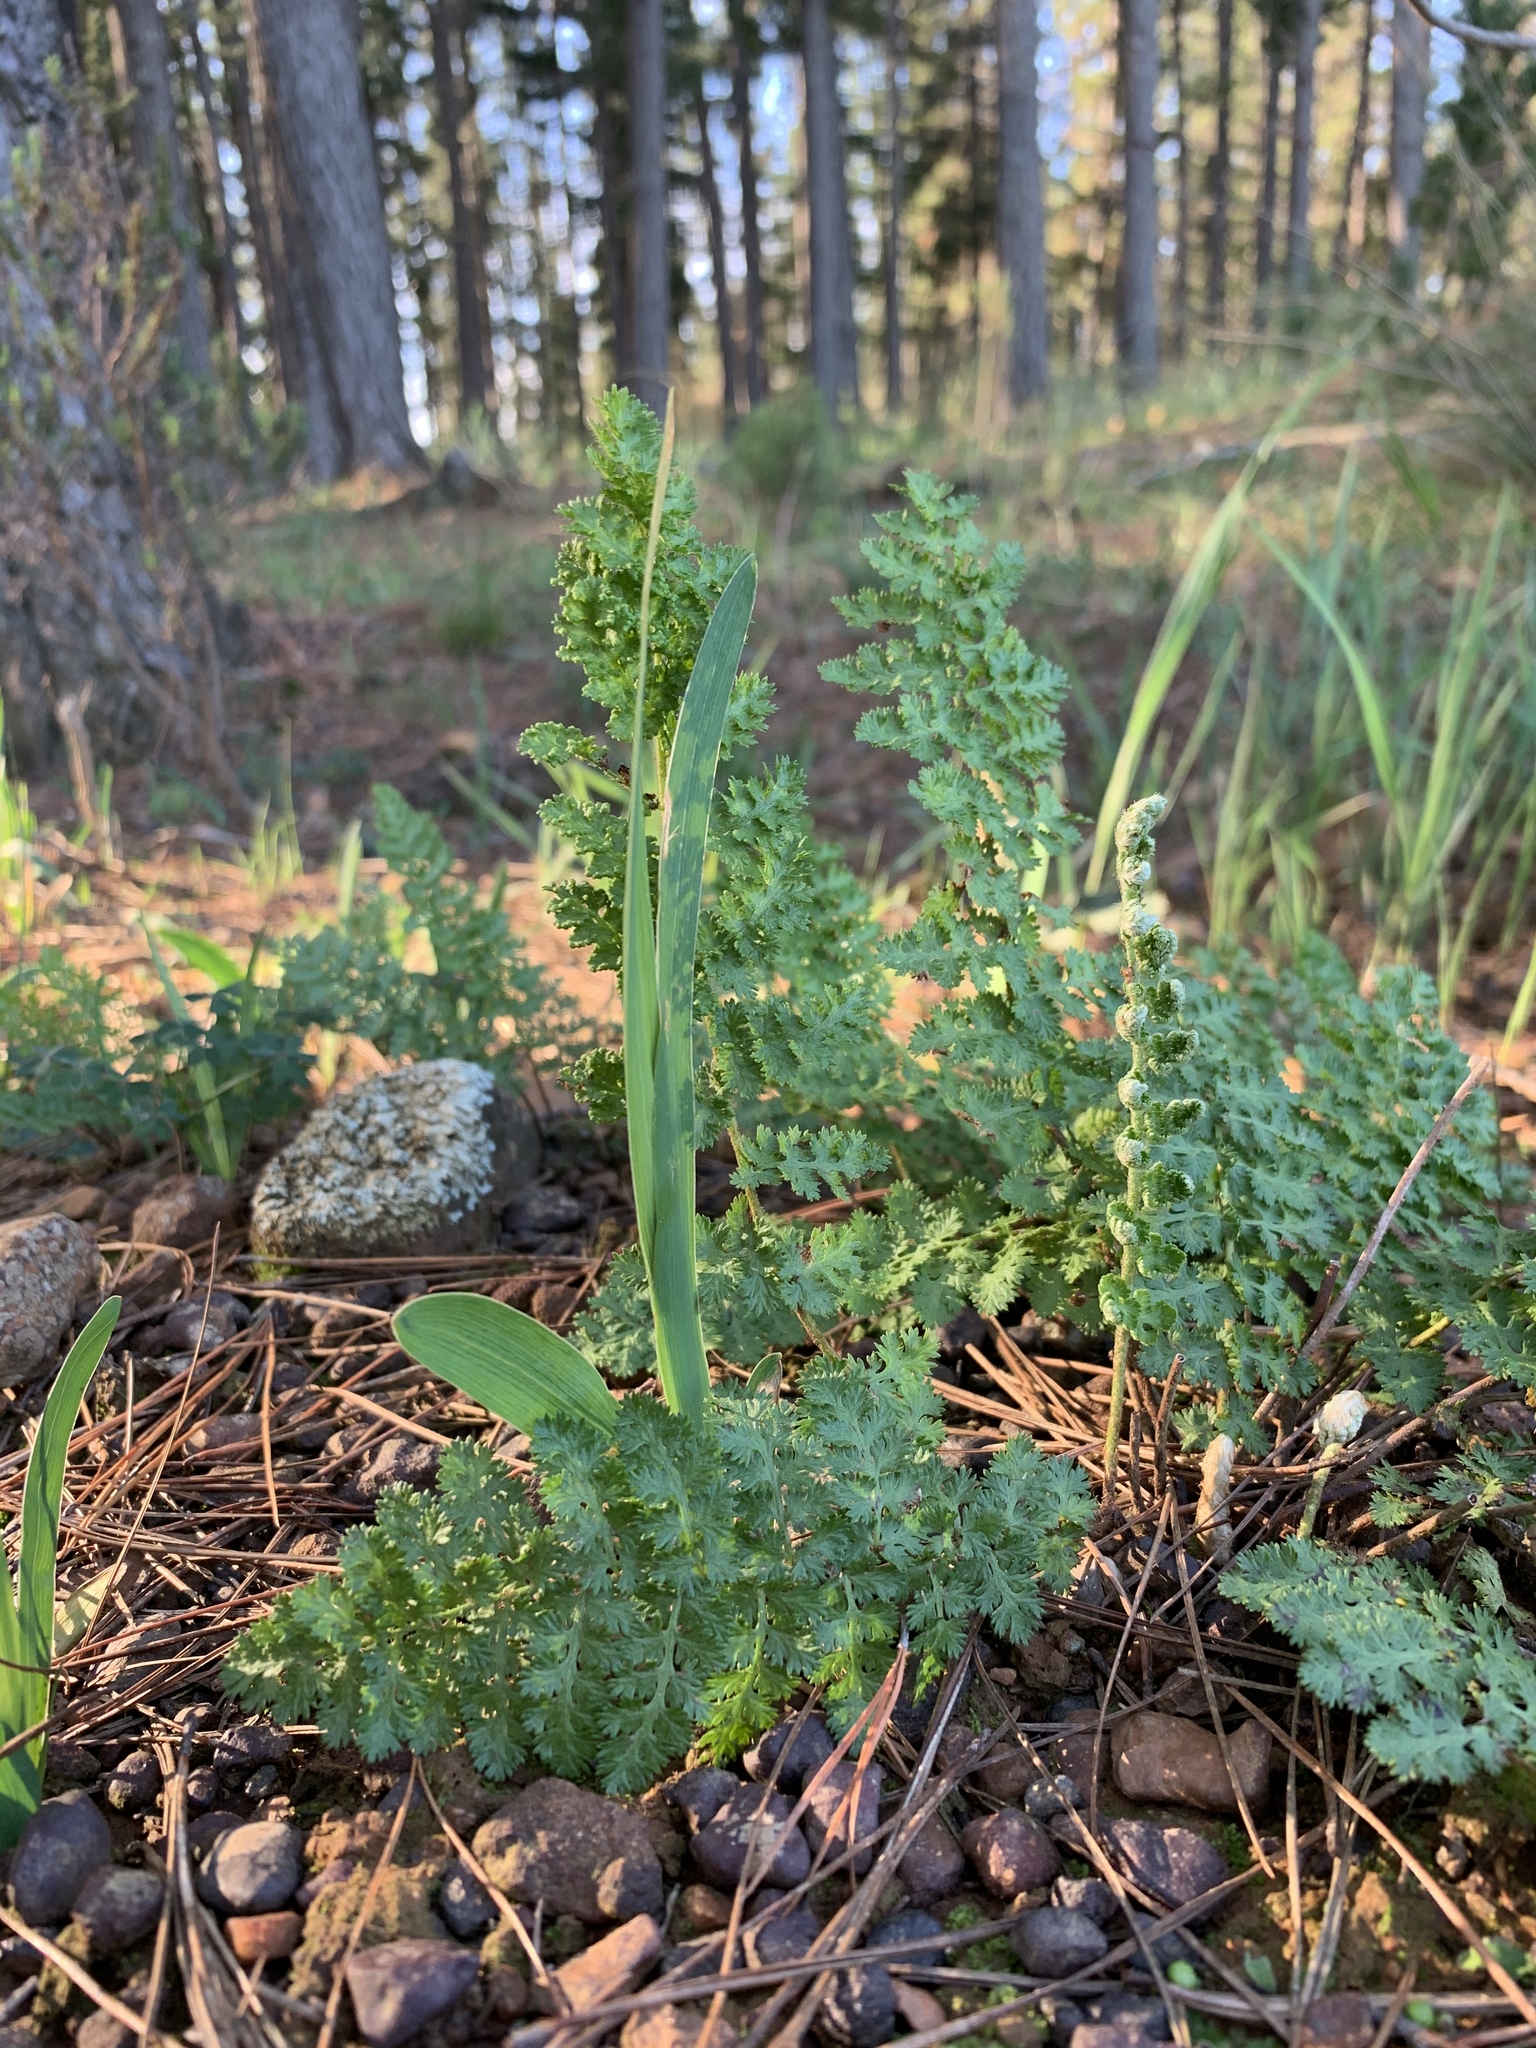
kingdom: Plantae
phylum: Tracheophyta
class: Polypodiopsida
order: Schizaeales
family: Anemiaceae
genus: Anemia
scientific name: Anemia caffrorum
